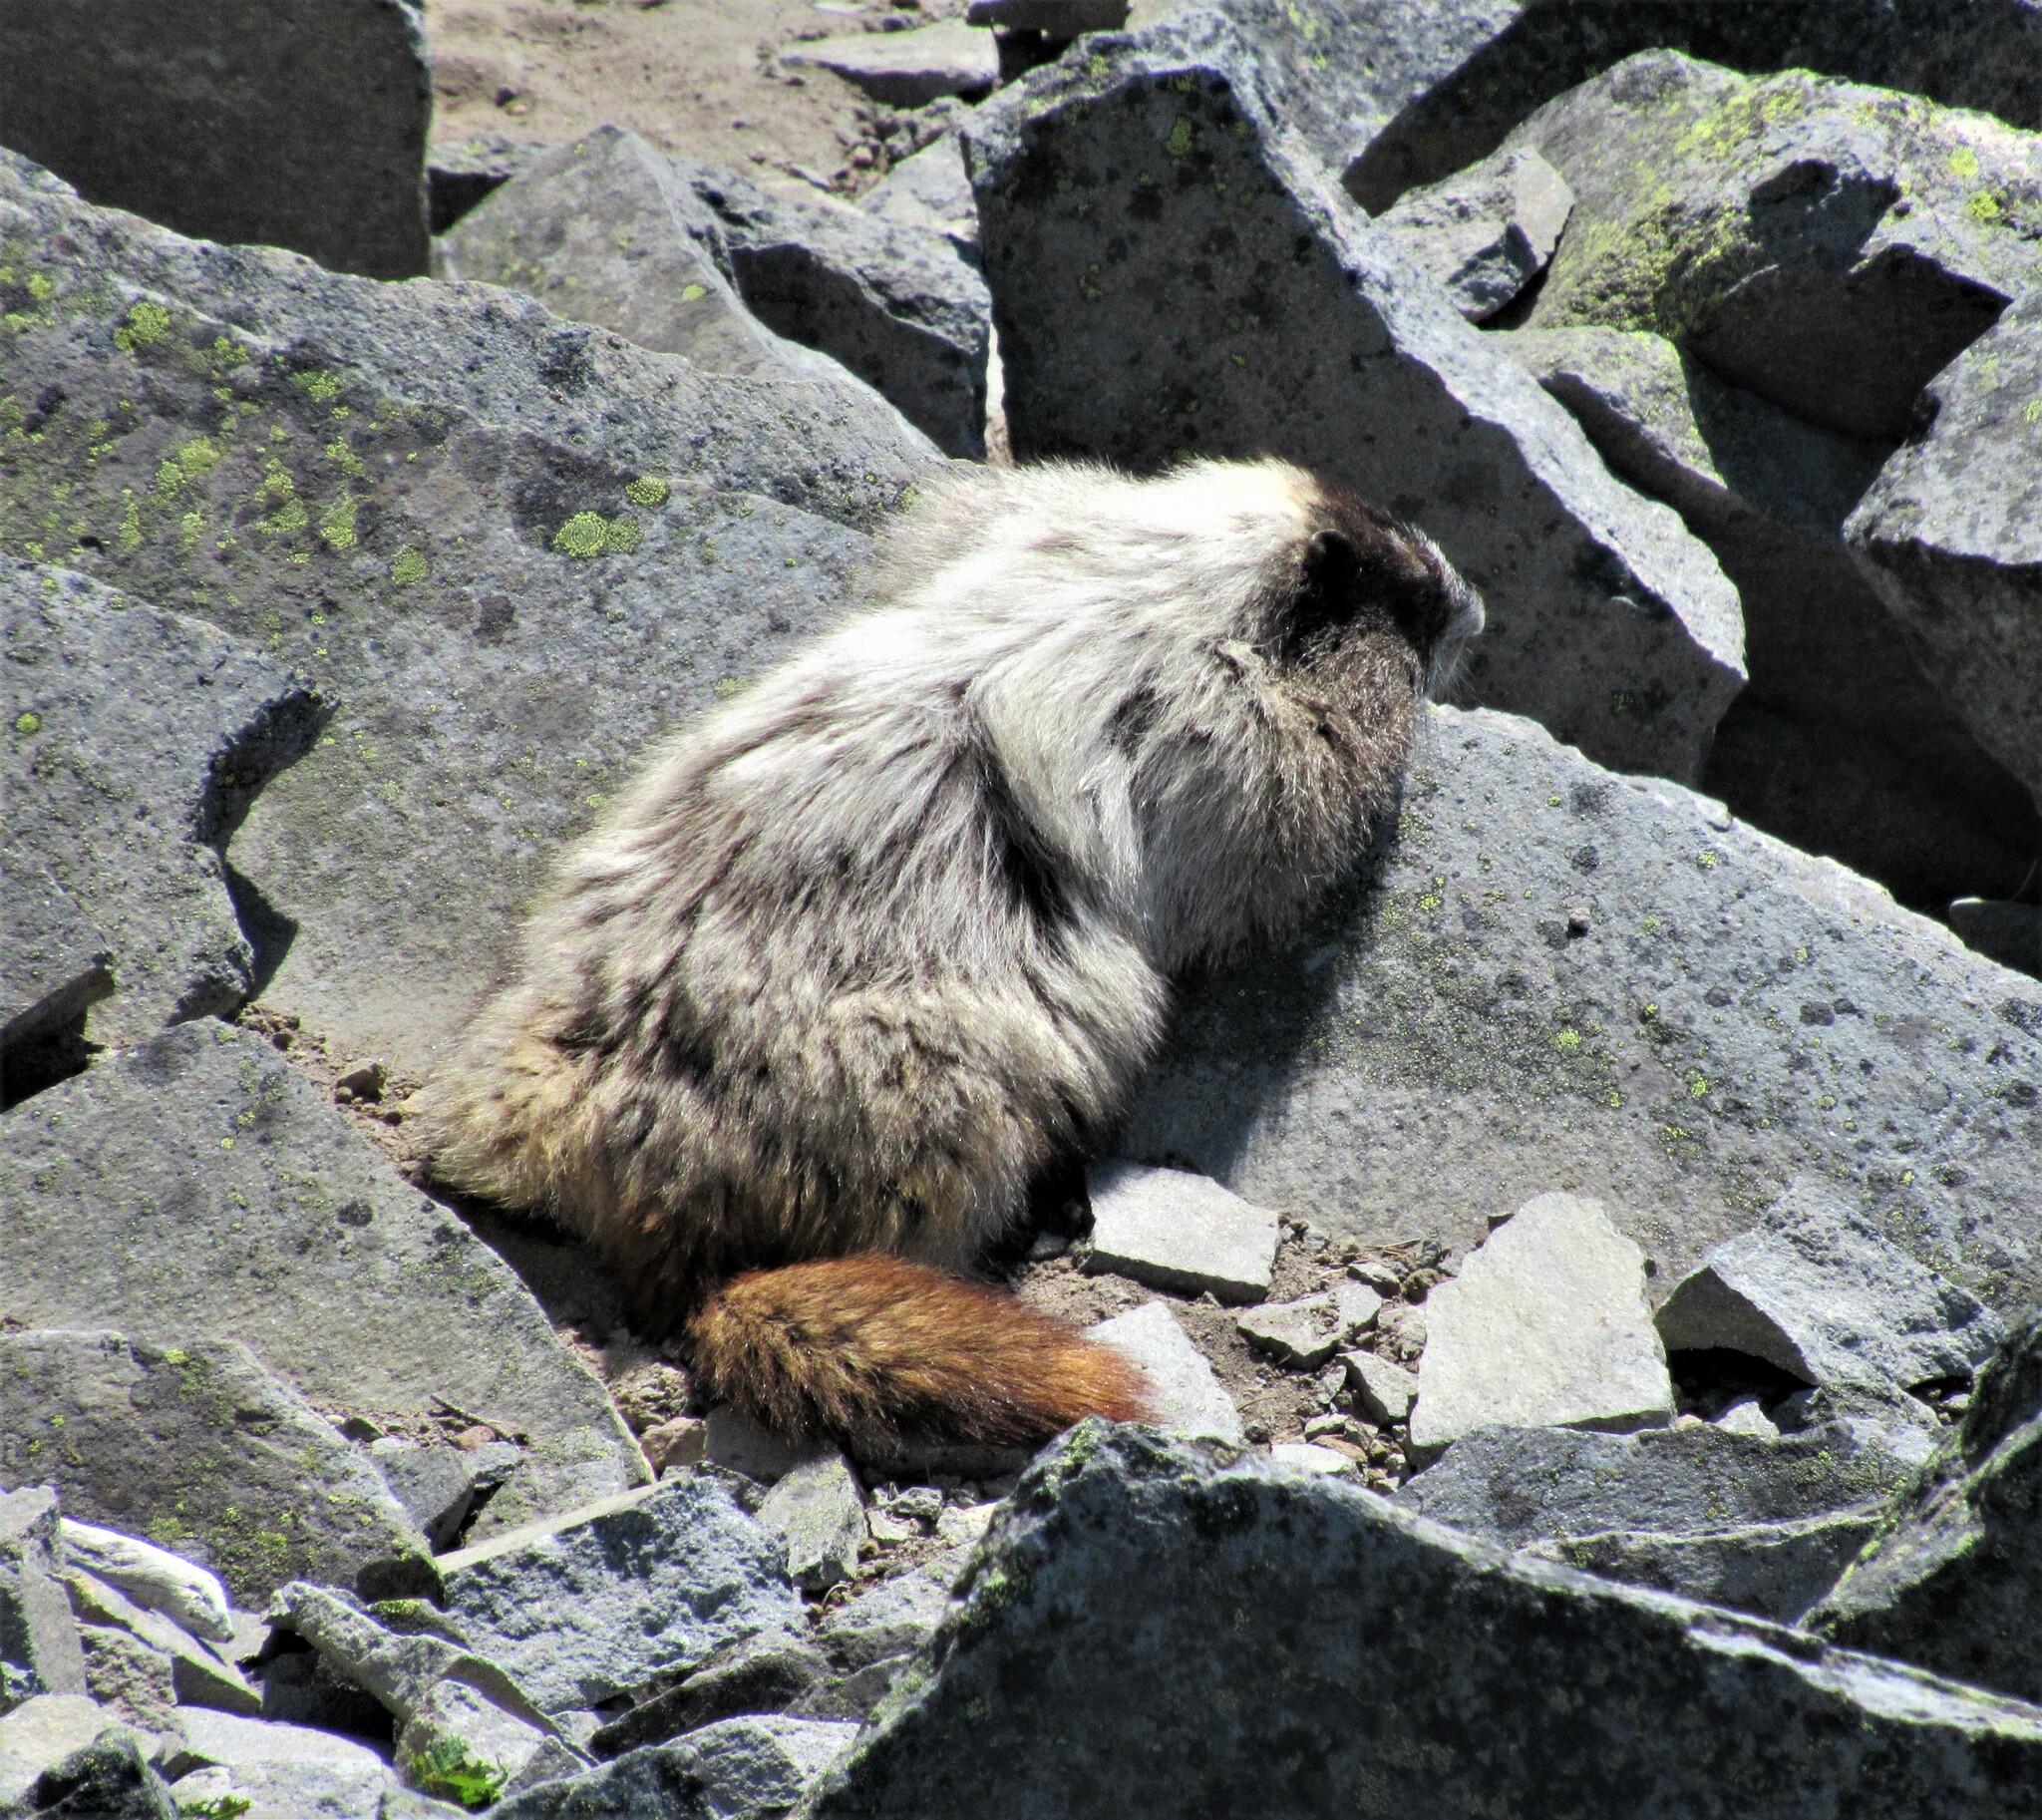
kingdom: Animalia
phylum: Chordata
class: Mammalia
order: Rodentia
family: Sciuridae
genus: Marmota
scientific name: Marmota caligata
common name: Hoary marmot
